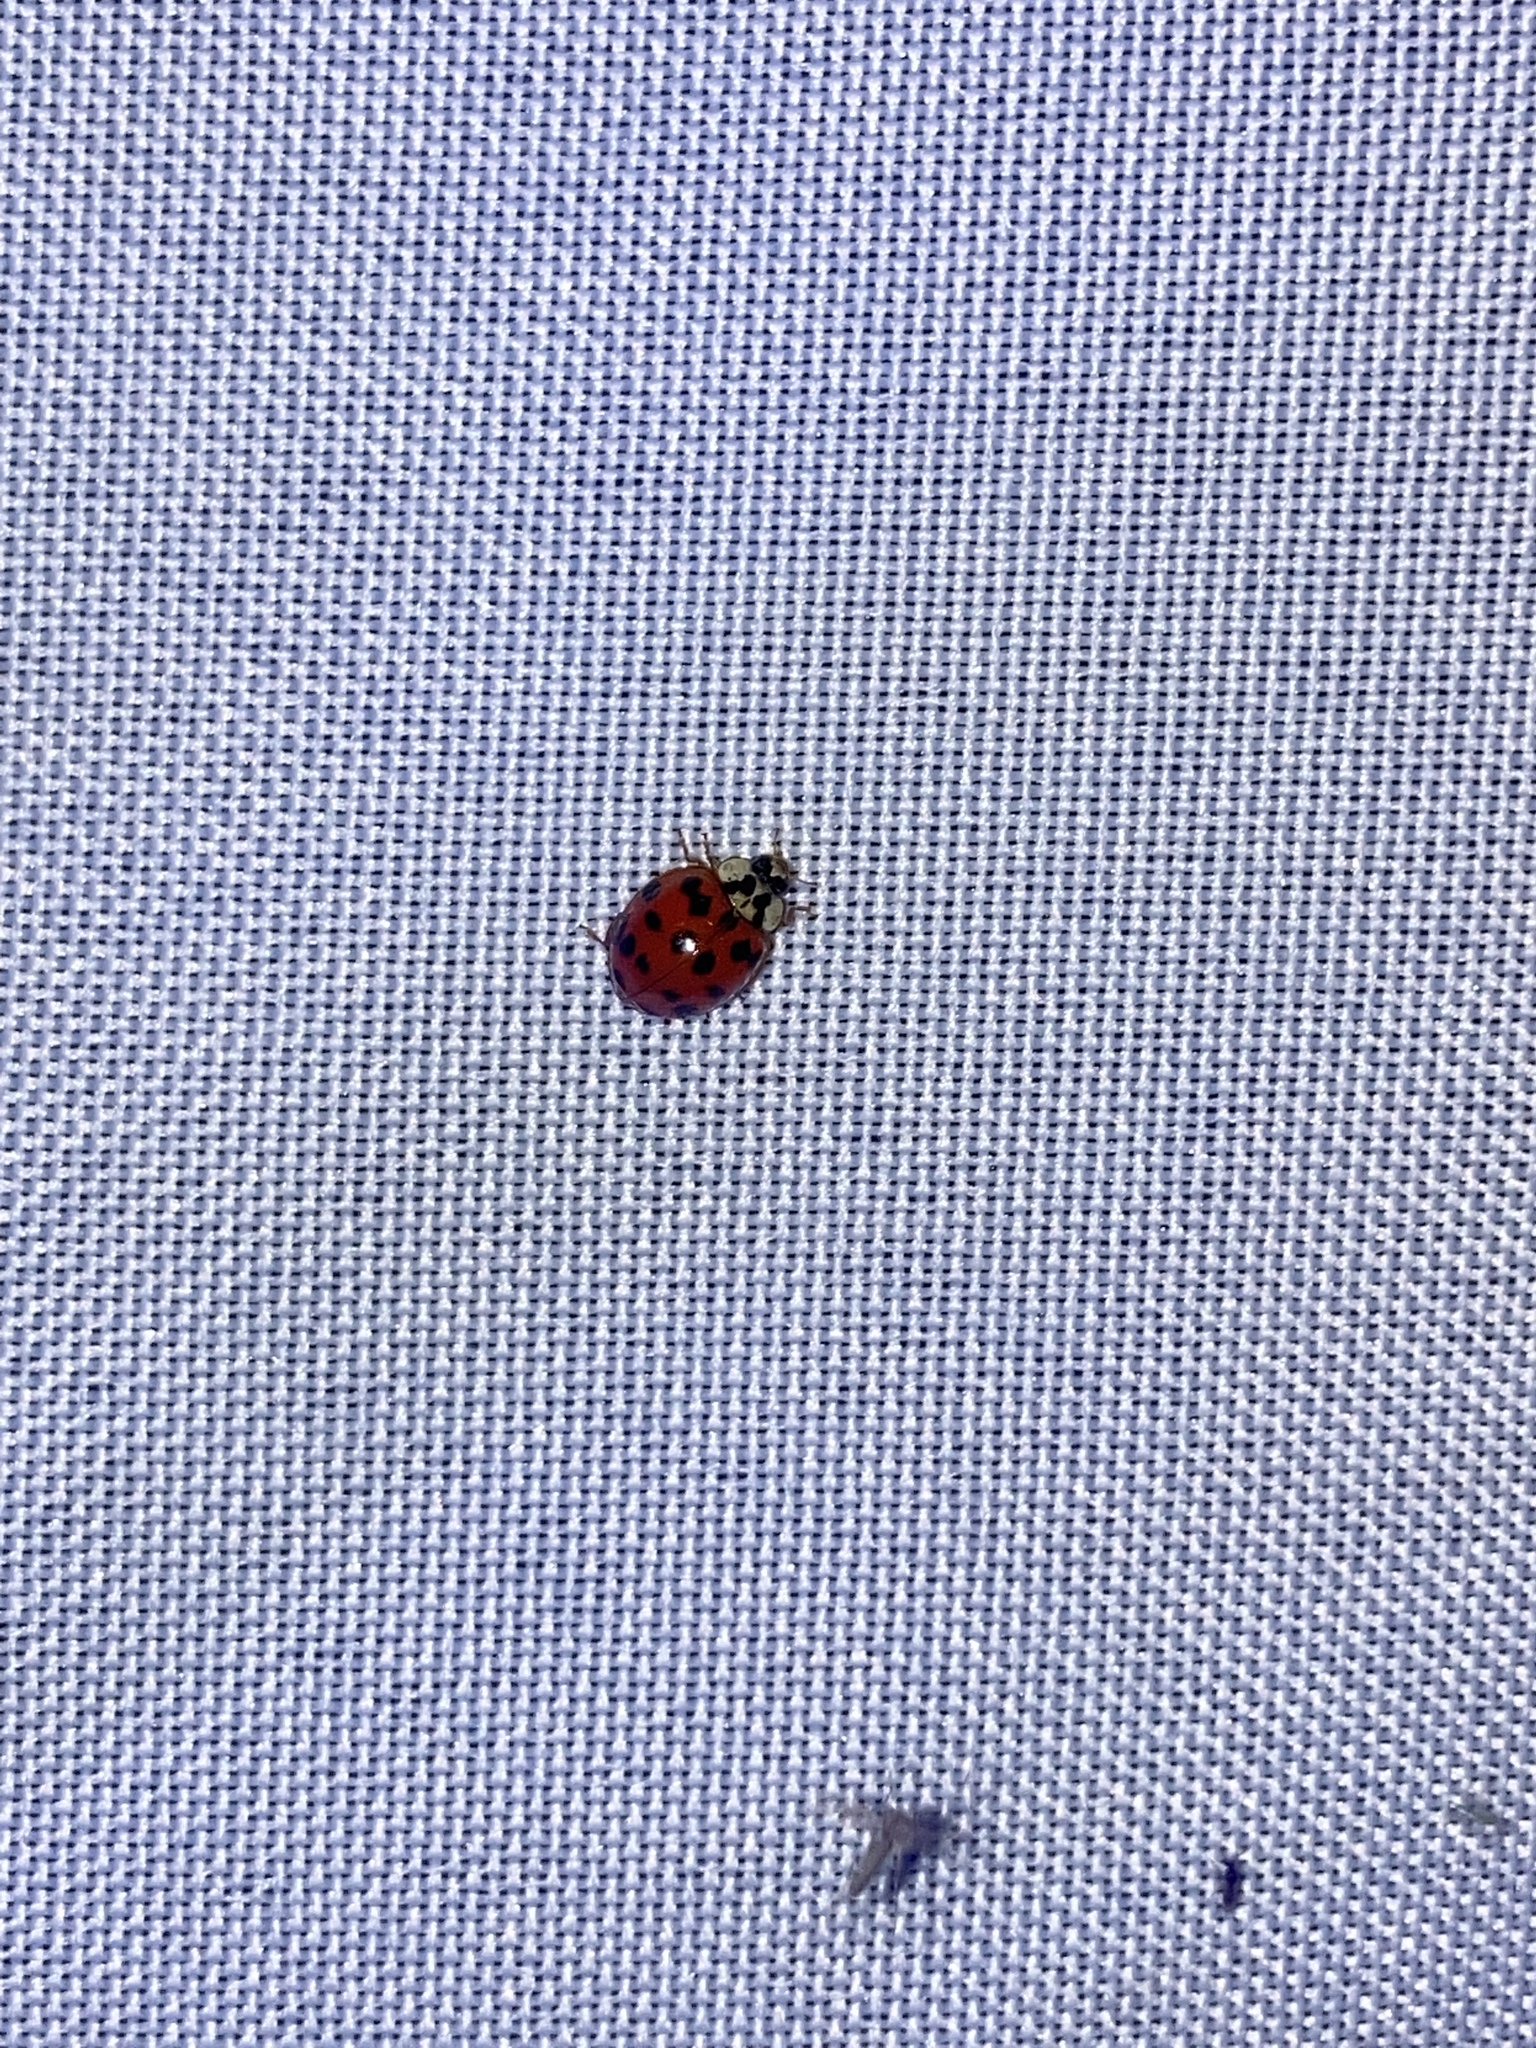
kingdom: Animalia
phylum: Arthropoda
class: Insecta
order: Coleoptera
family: Coccinellidae
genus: Harmonia
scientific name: Harmonia axyridis
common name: Harlequin ladybird
